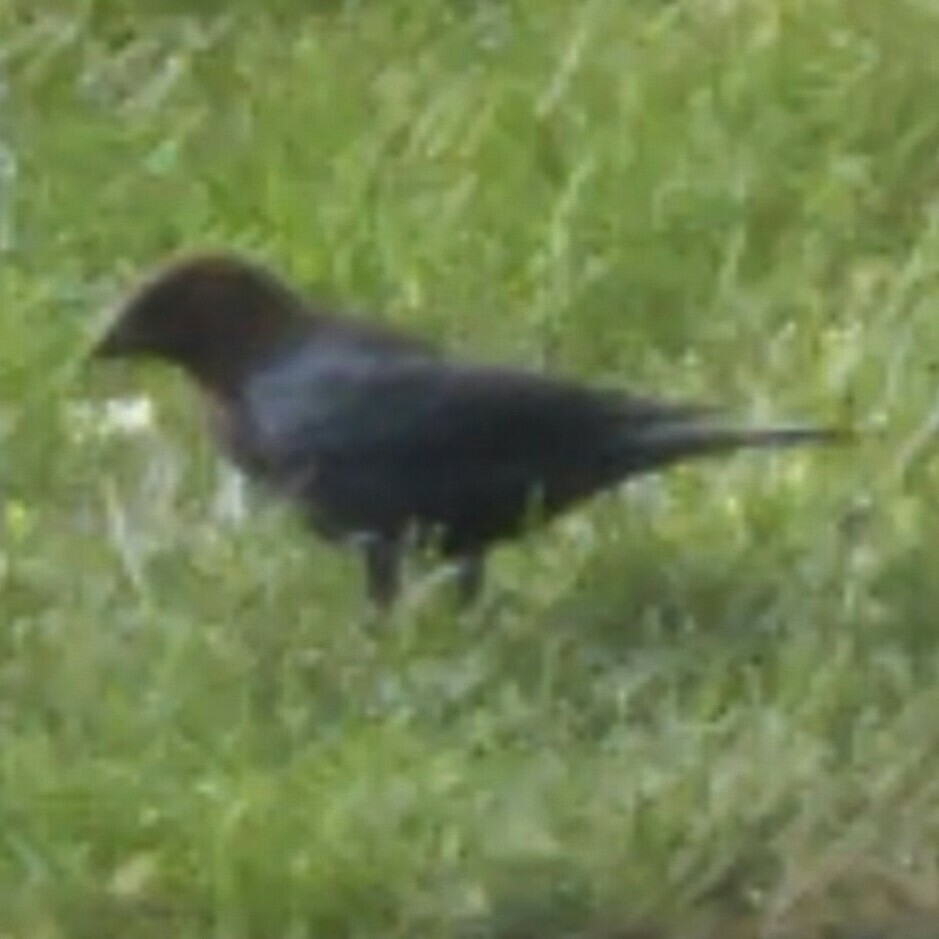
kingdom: Animalia
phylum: Chordata
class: Aves
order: Passeriformes
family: Icteridae
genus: Molothrus
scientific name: Molothrus ater
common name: Brown-headed cowbird
